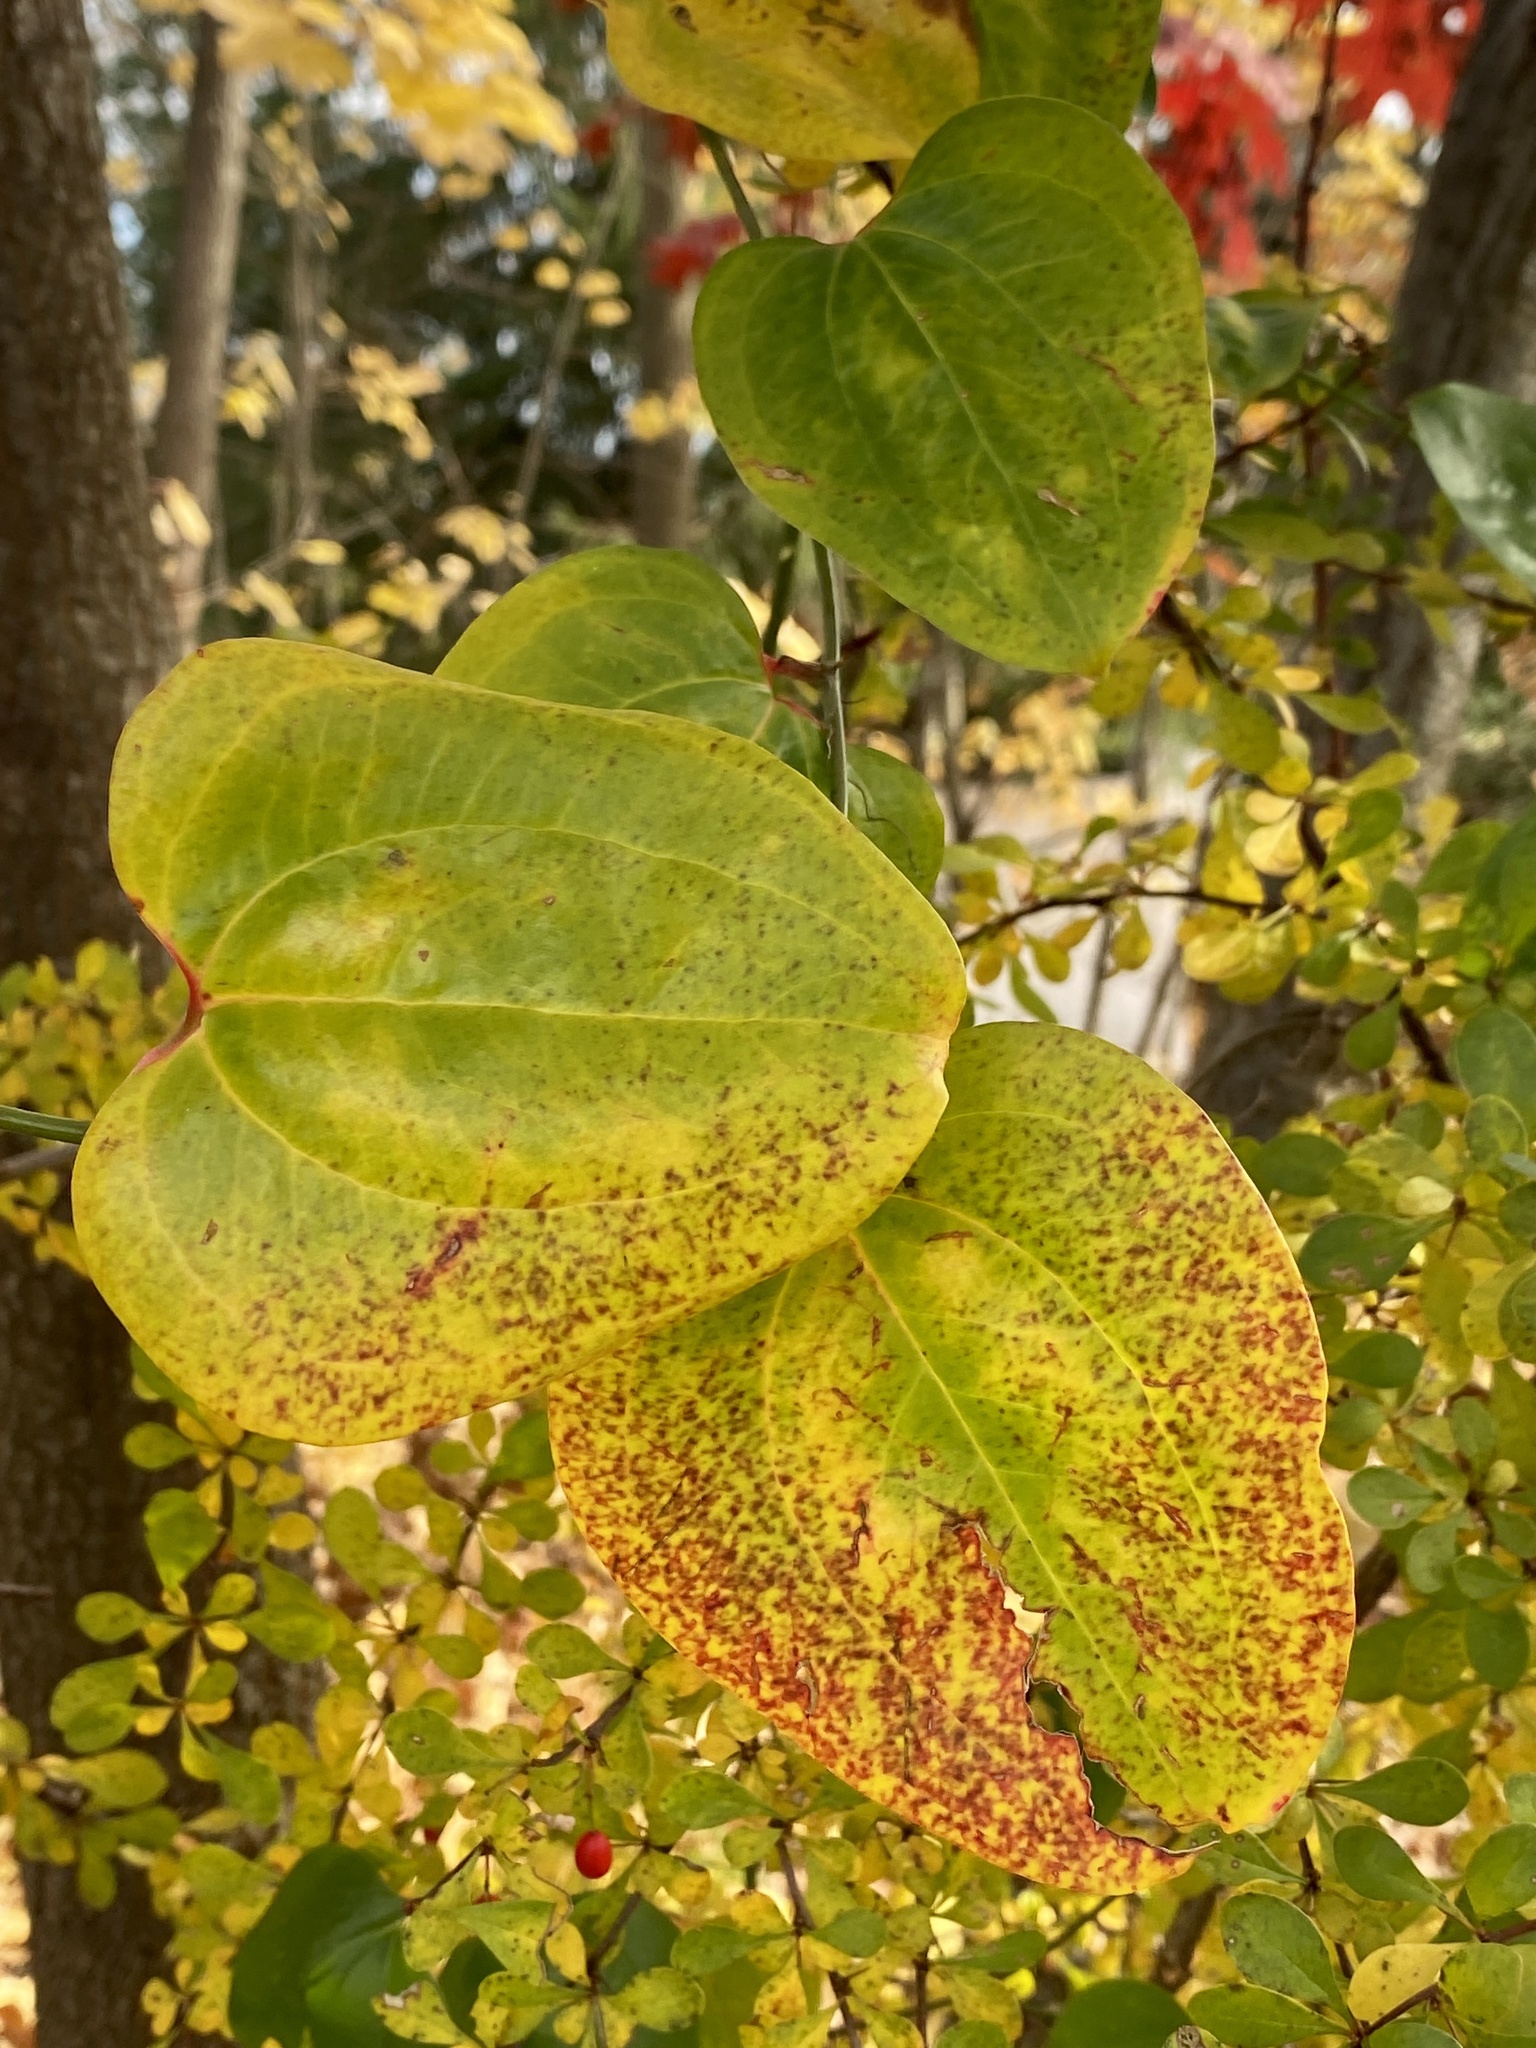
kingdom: Plantae
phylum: Tracheophyta
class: Liliopsida
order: Liliales
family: Smilacaceae
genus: Smilax
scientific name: Smilax rotundifolia
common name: Bullbriar
